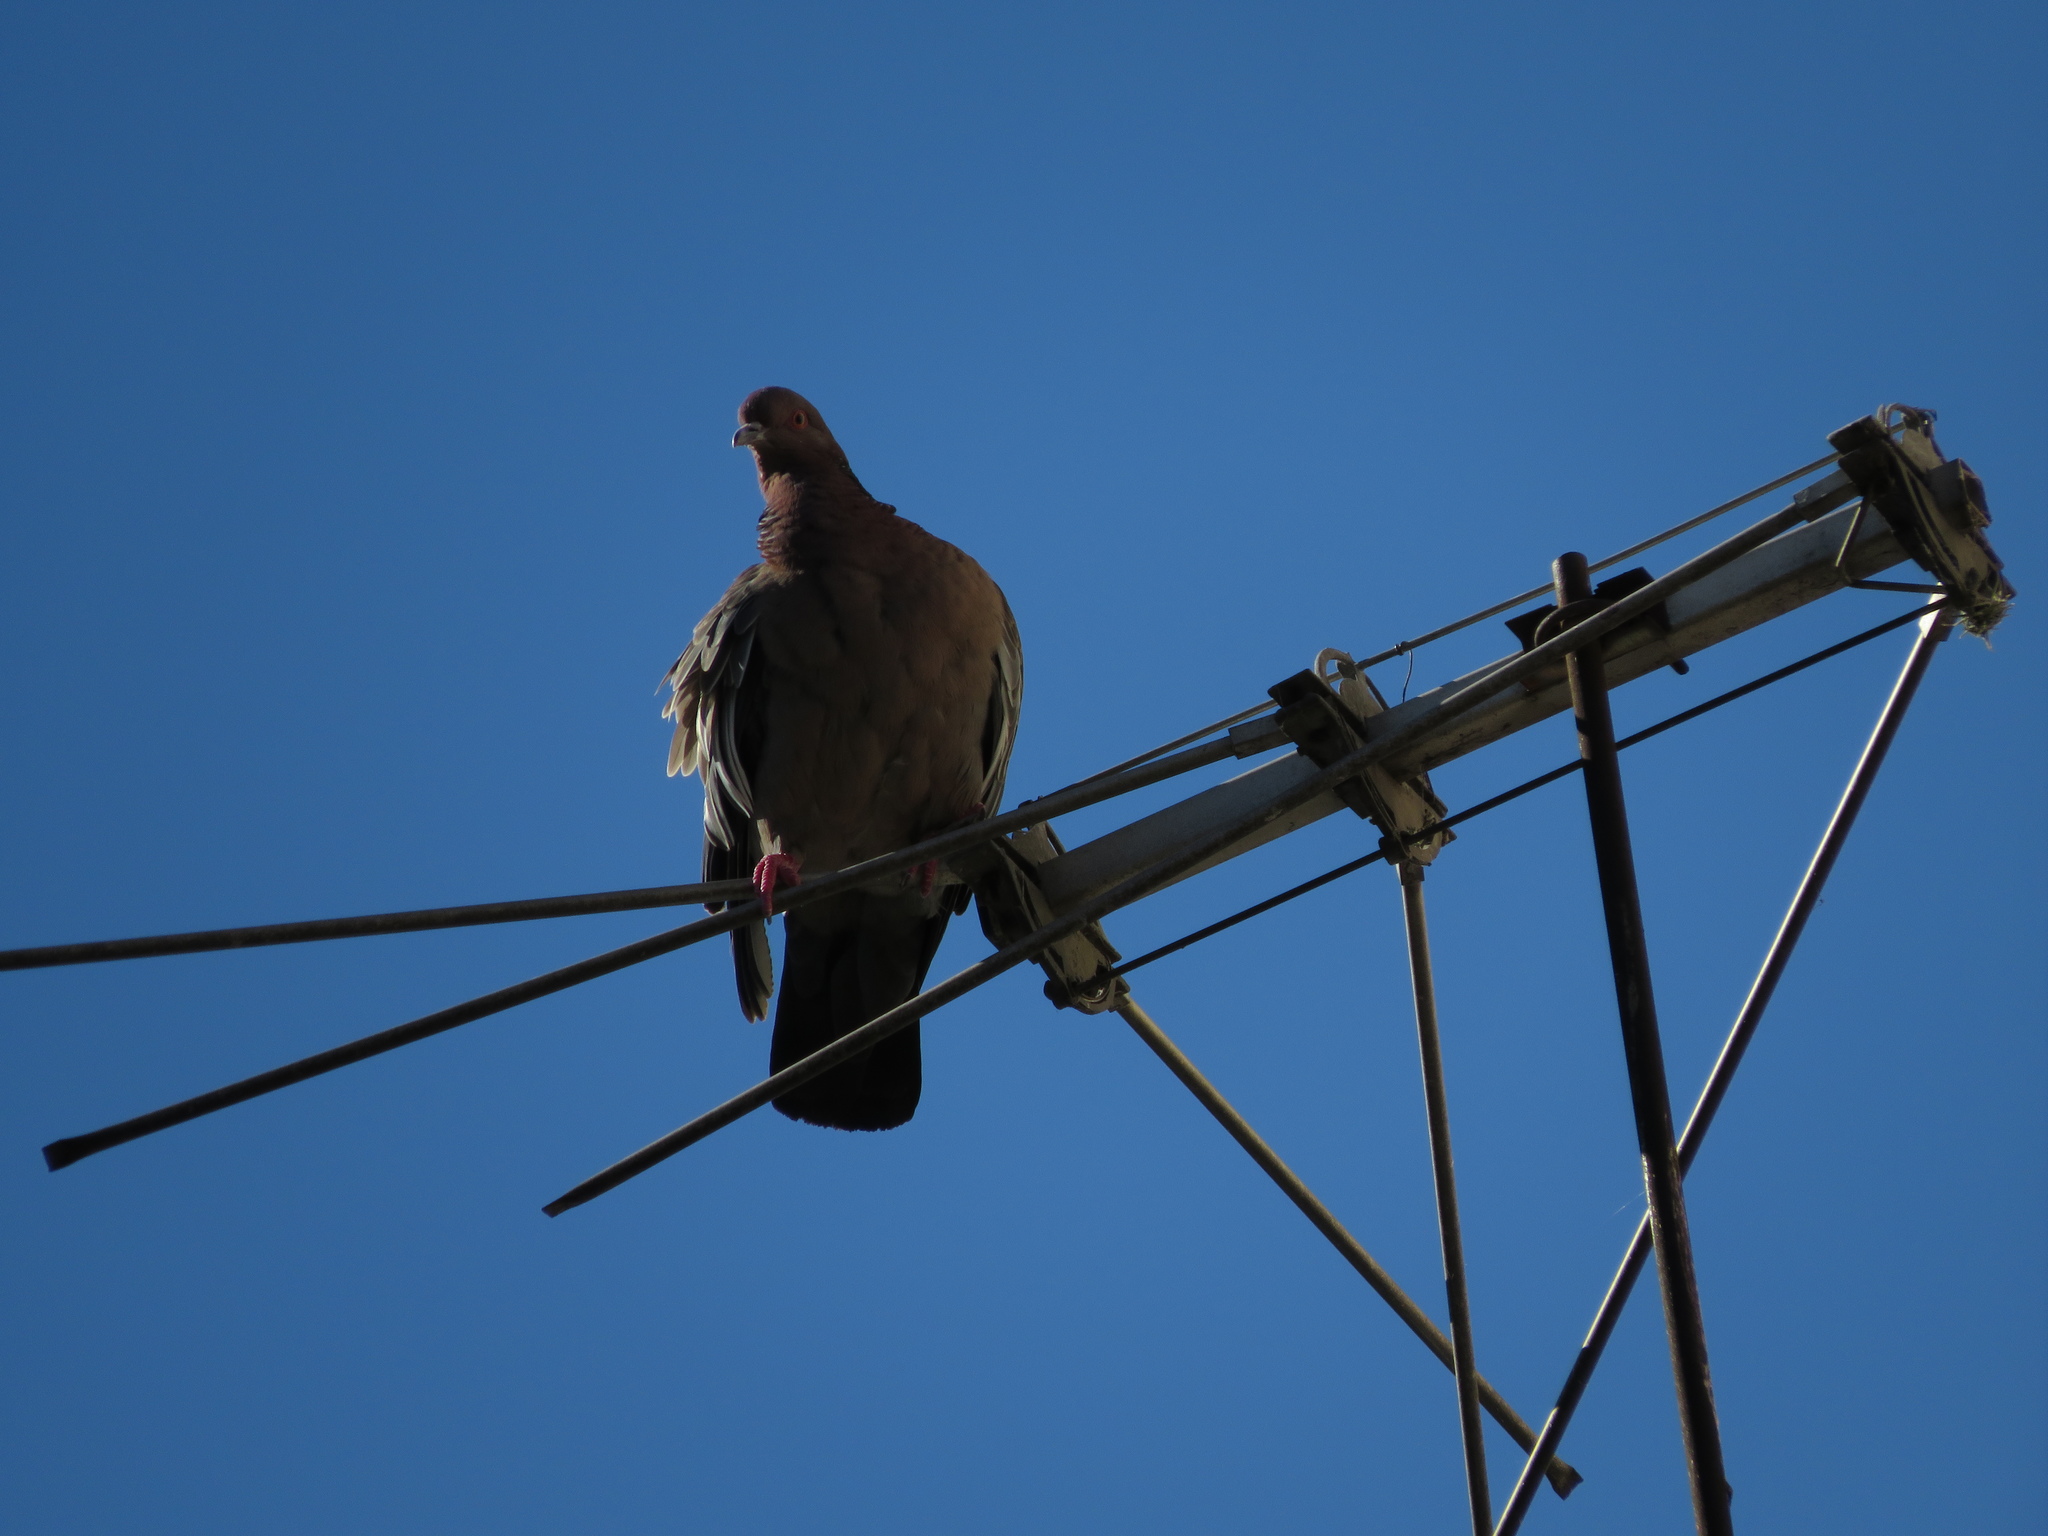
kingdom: Animalia
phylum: Chordata
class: Aves
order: Columbiformes
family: Columbidae
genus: Patagioenas
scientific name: Patagioenas picazuro
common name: Picazuro pigeon
